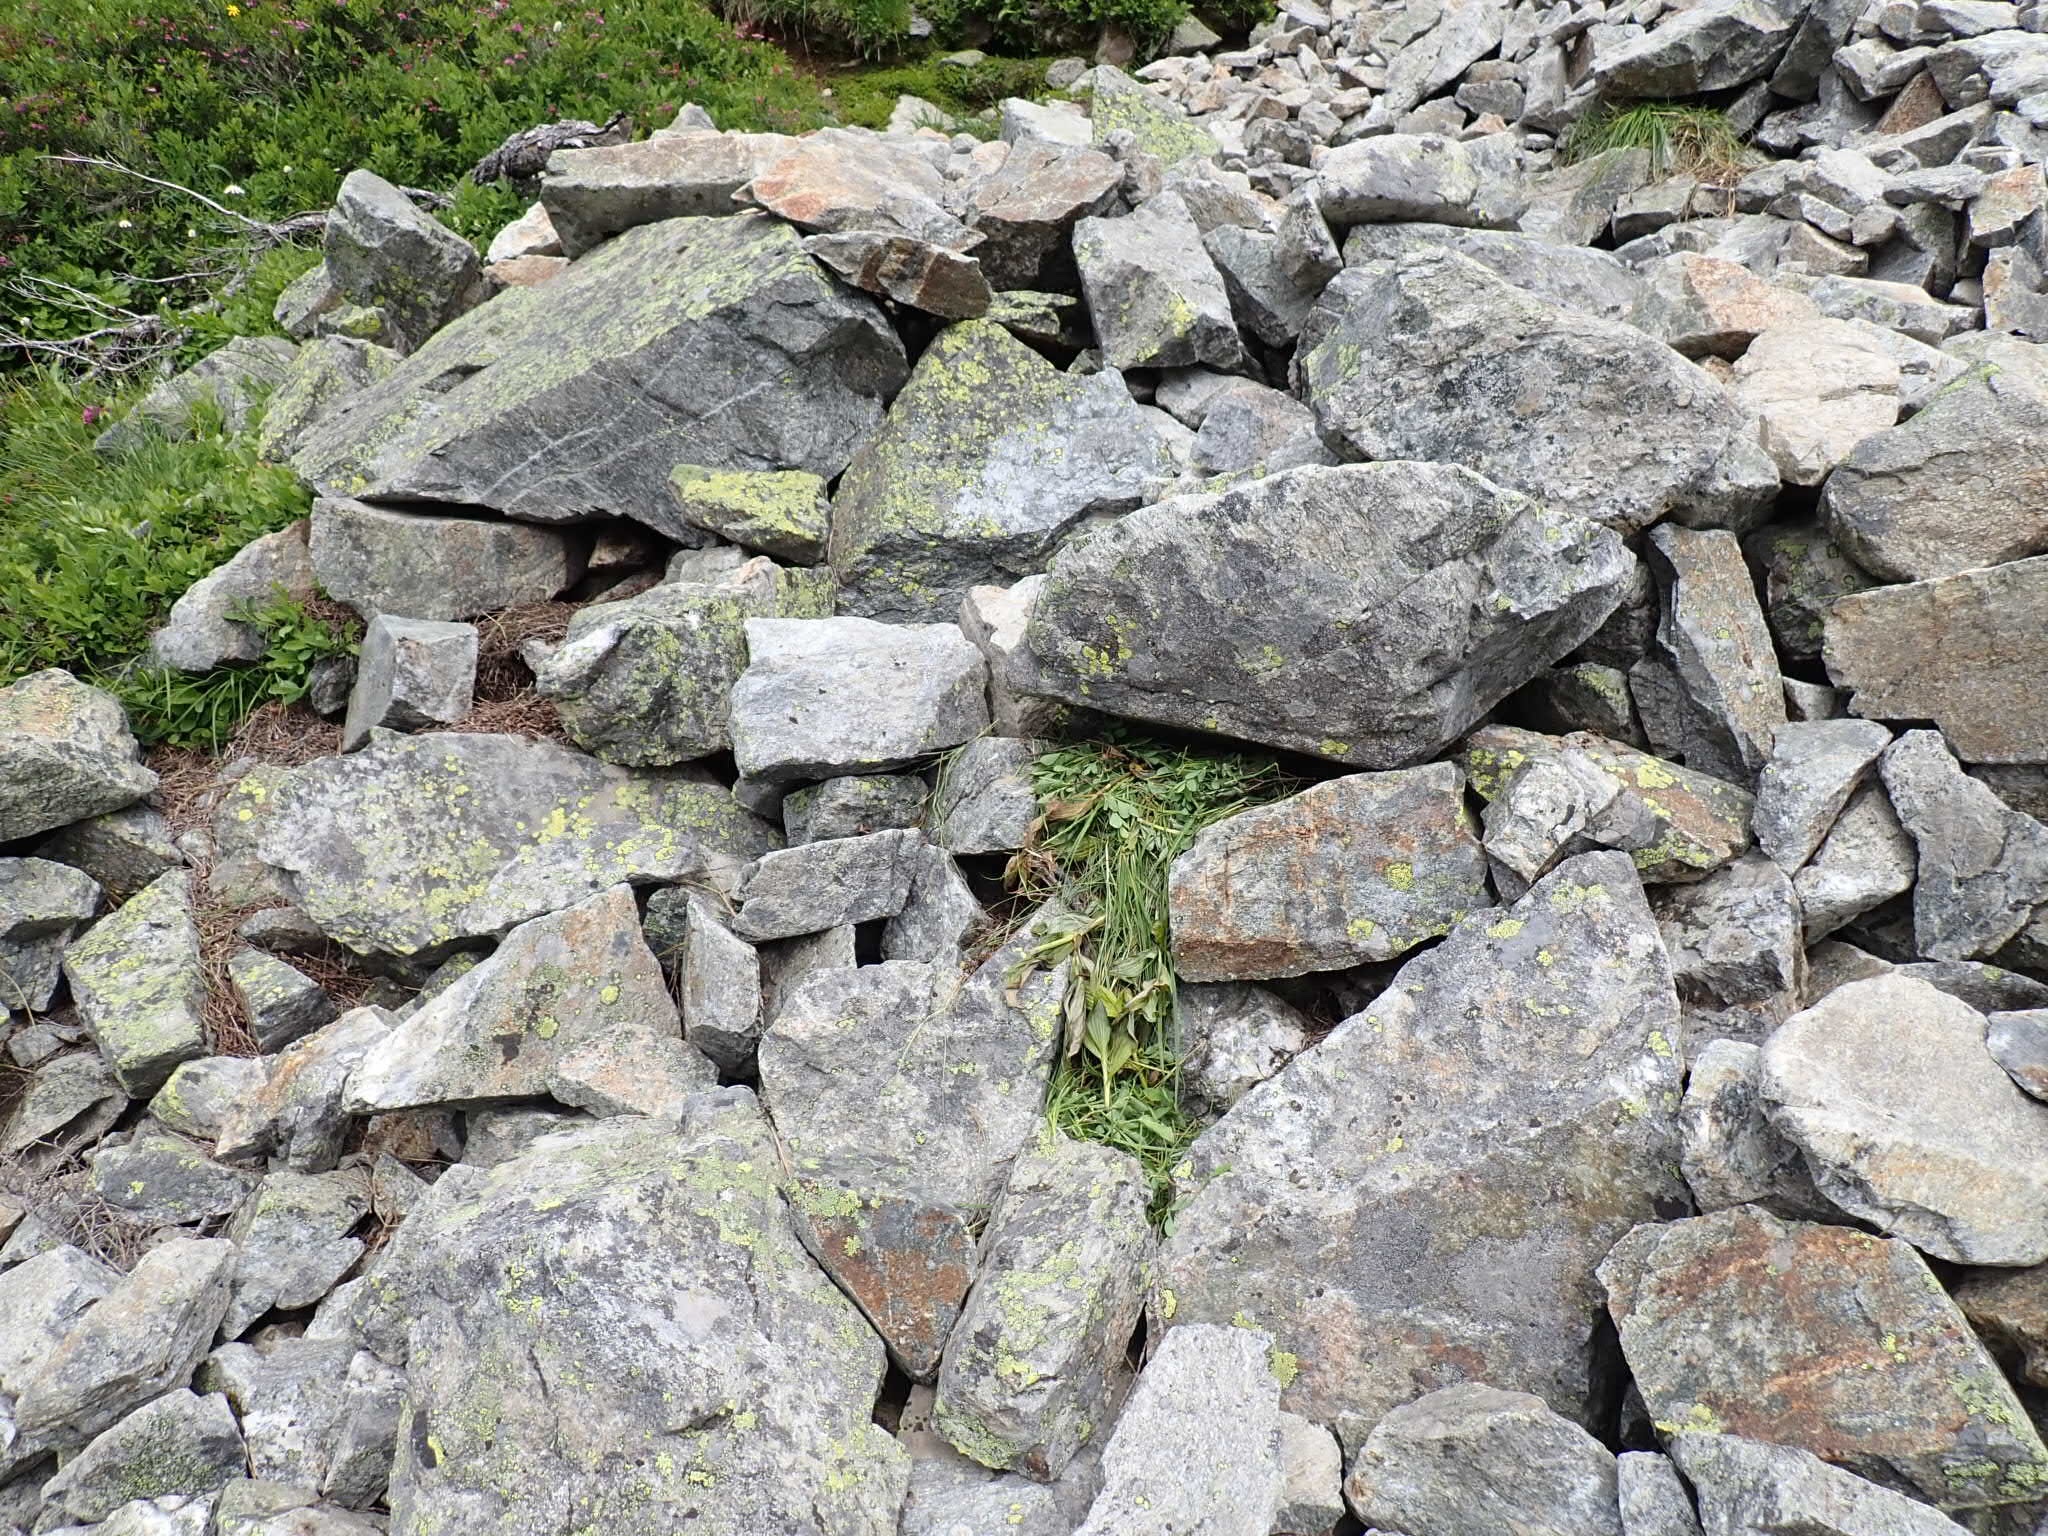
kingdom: Animalia
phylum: Chordata
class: Mammalia
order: Lagomorpha
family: Ochotonidae
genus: Ochotona
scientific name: Ochotona princeps
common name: American pika
